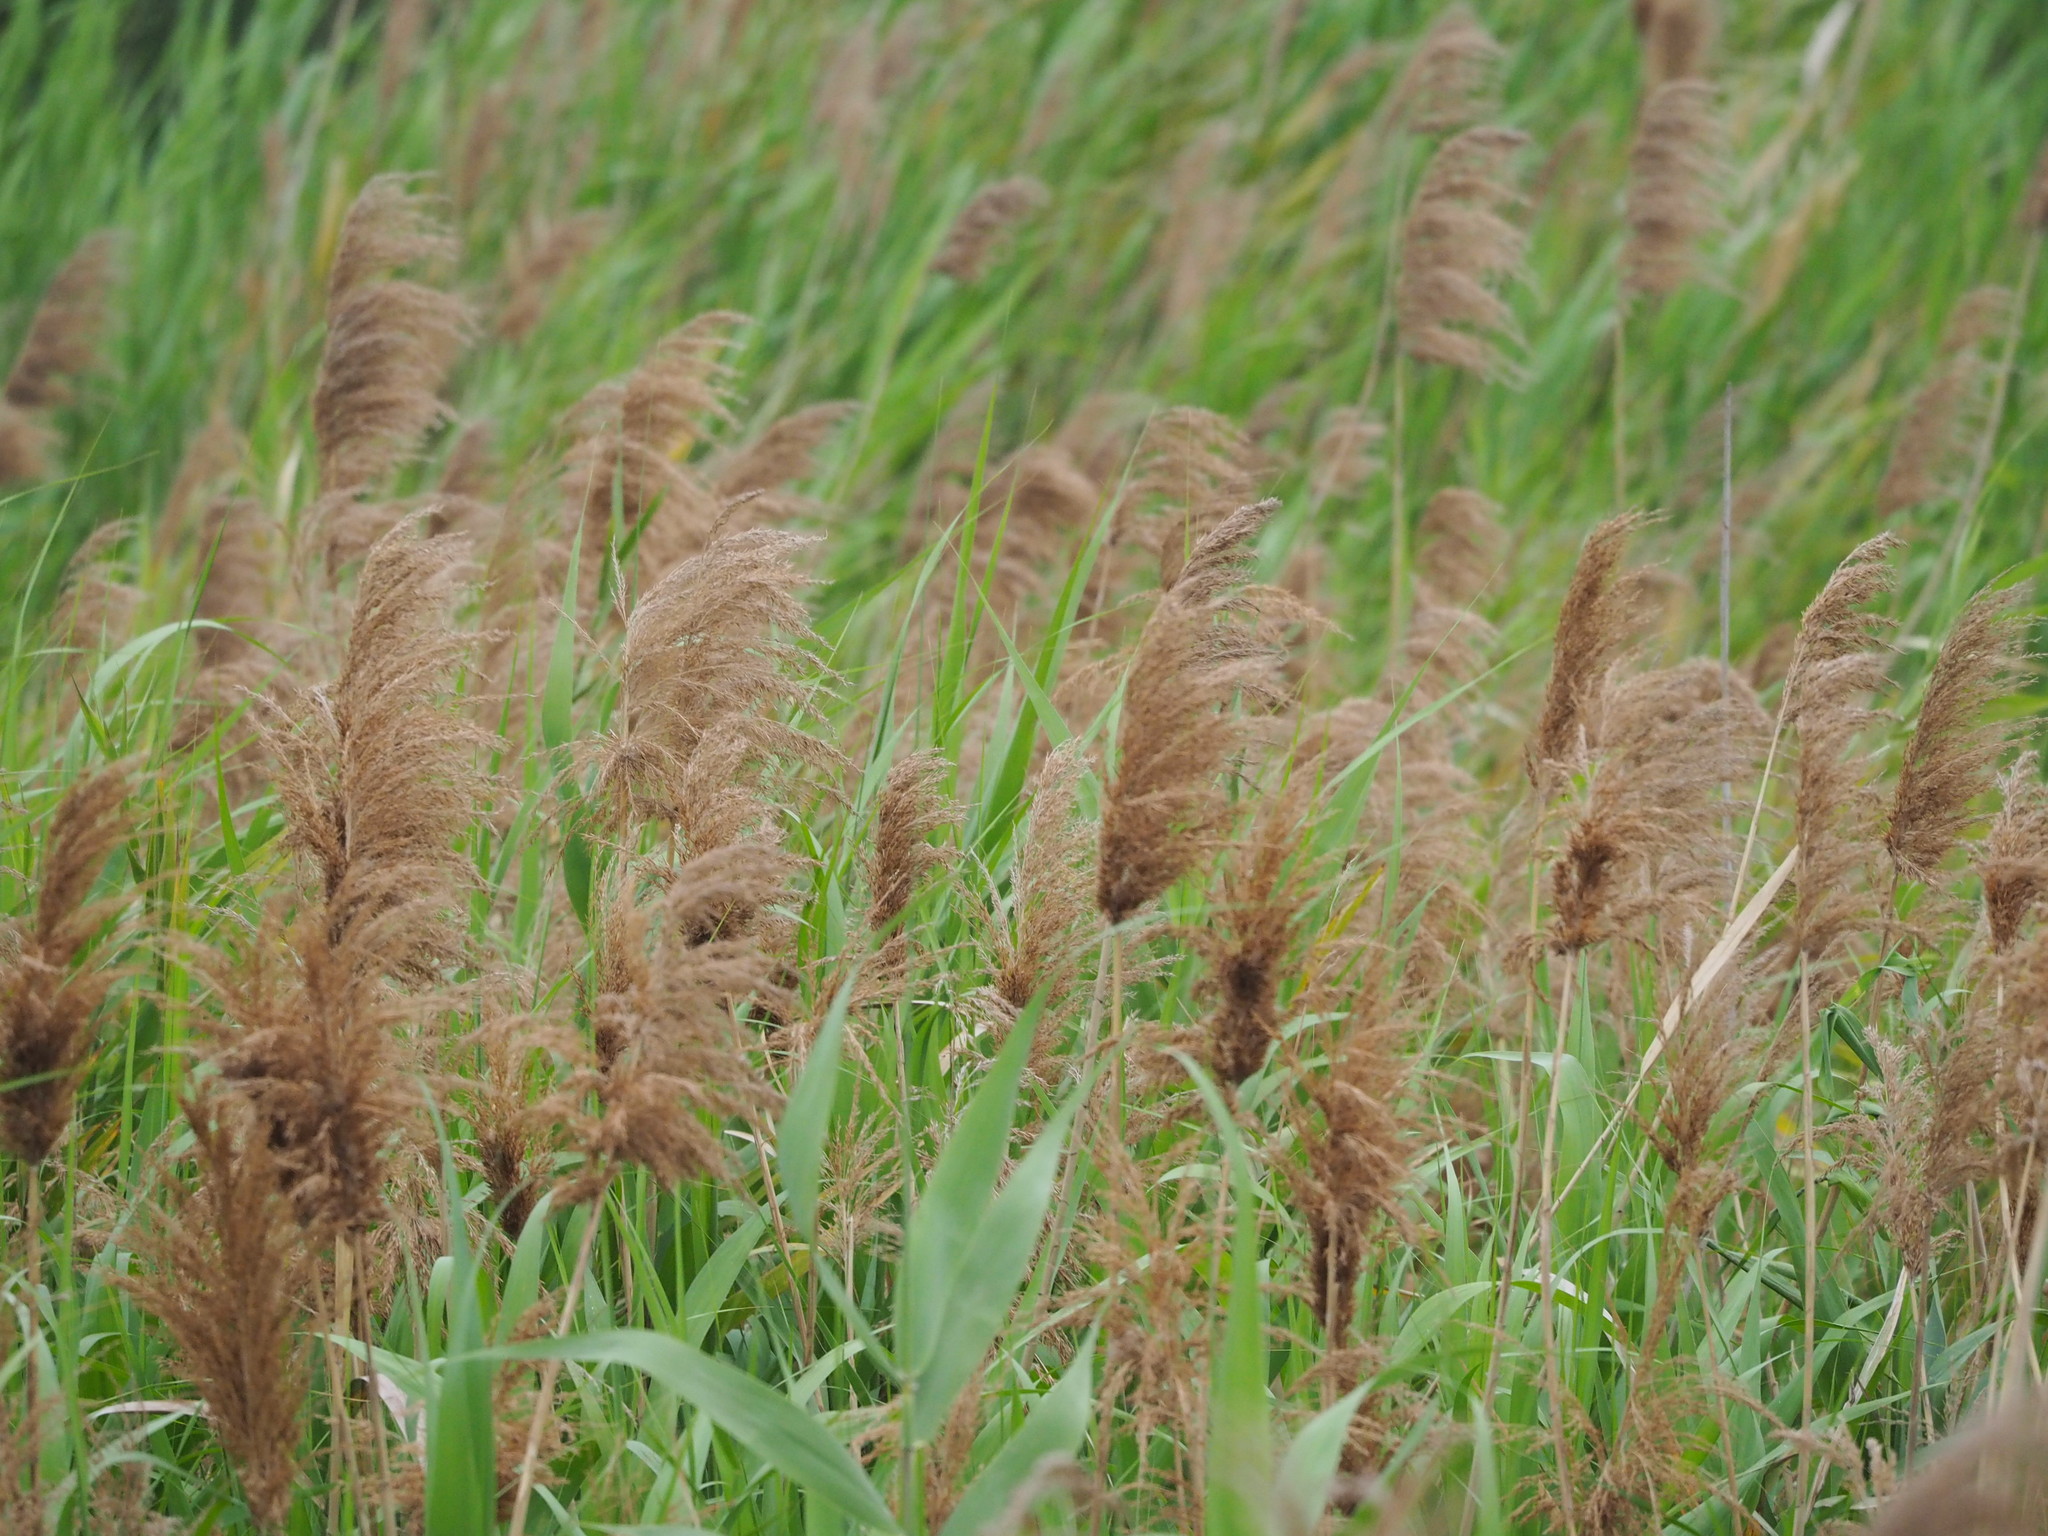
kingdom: Plantae
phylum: Tracheophyta
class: Liliopsida
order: Poales
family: Poaceae
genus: Phragmites
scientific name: Phragmites australis
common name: Common reed
